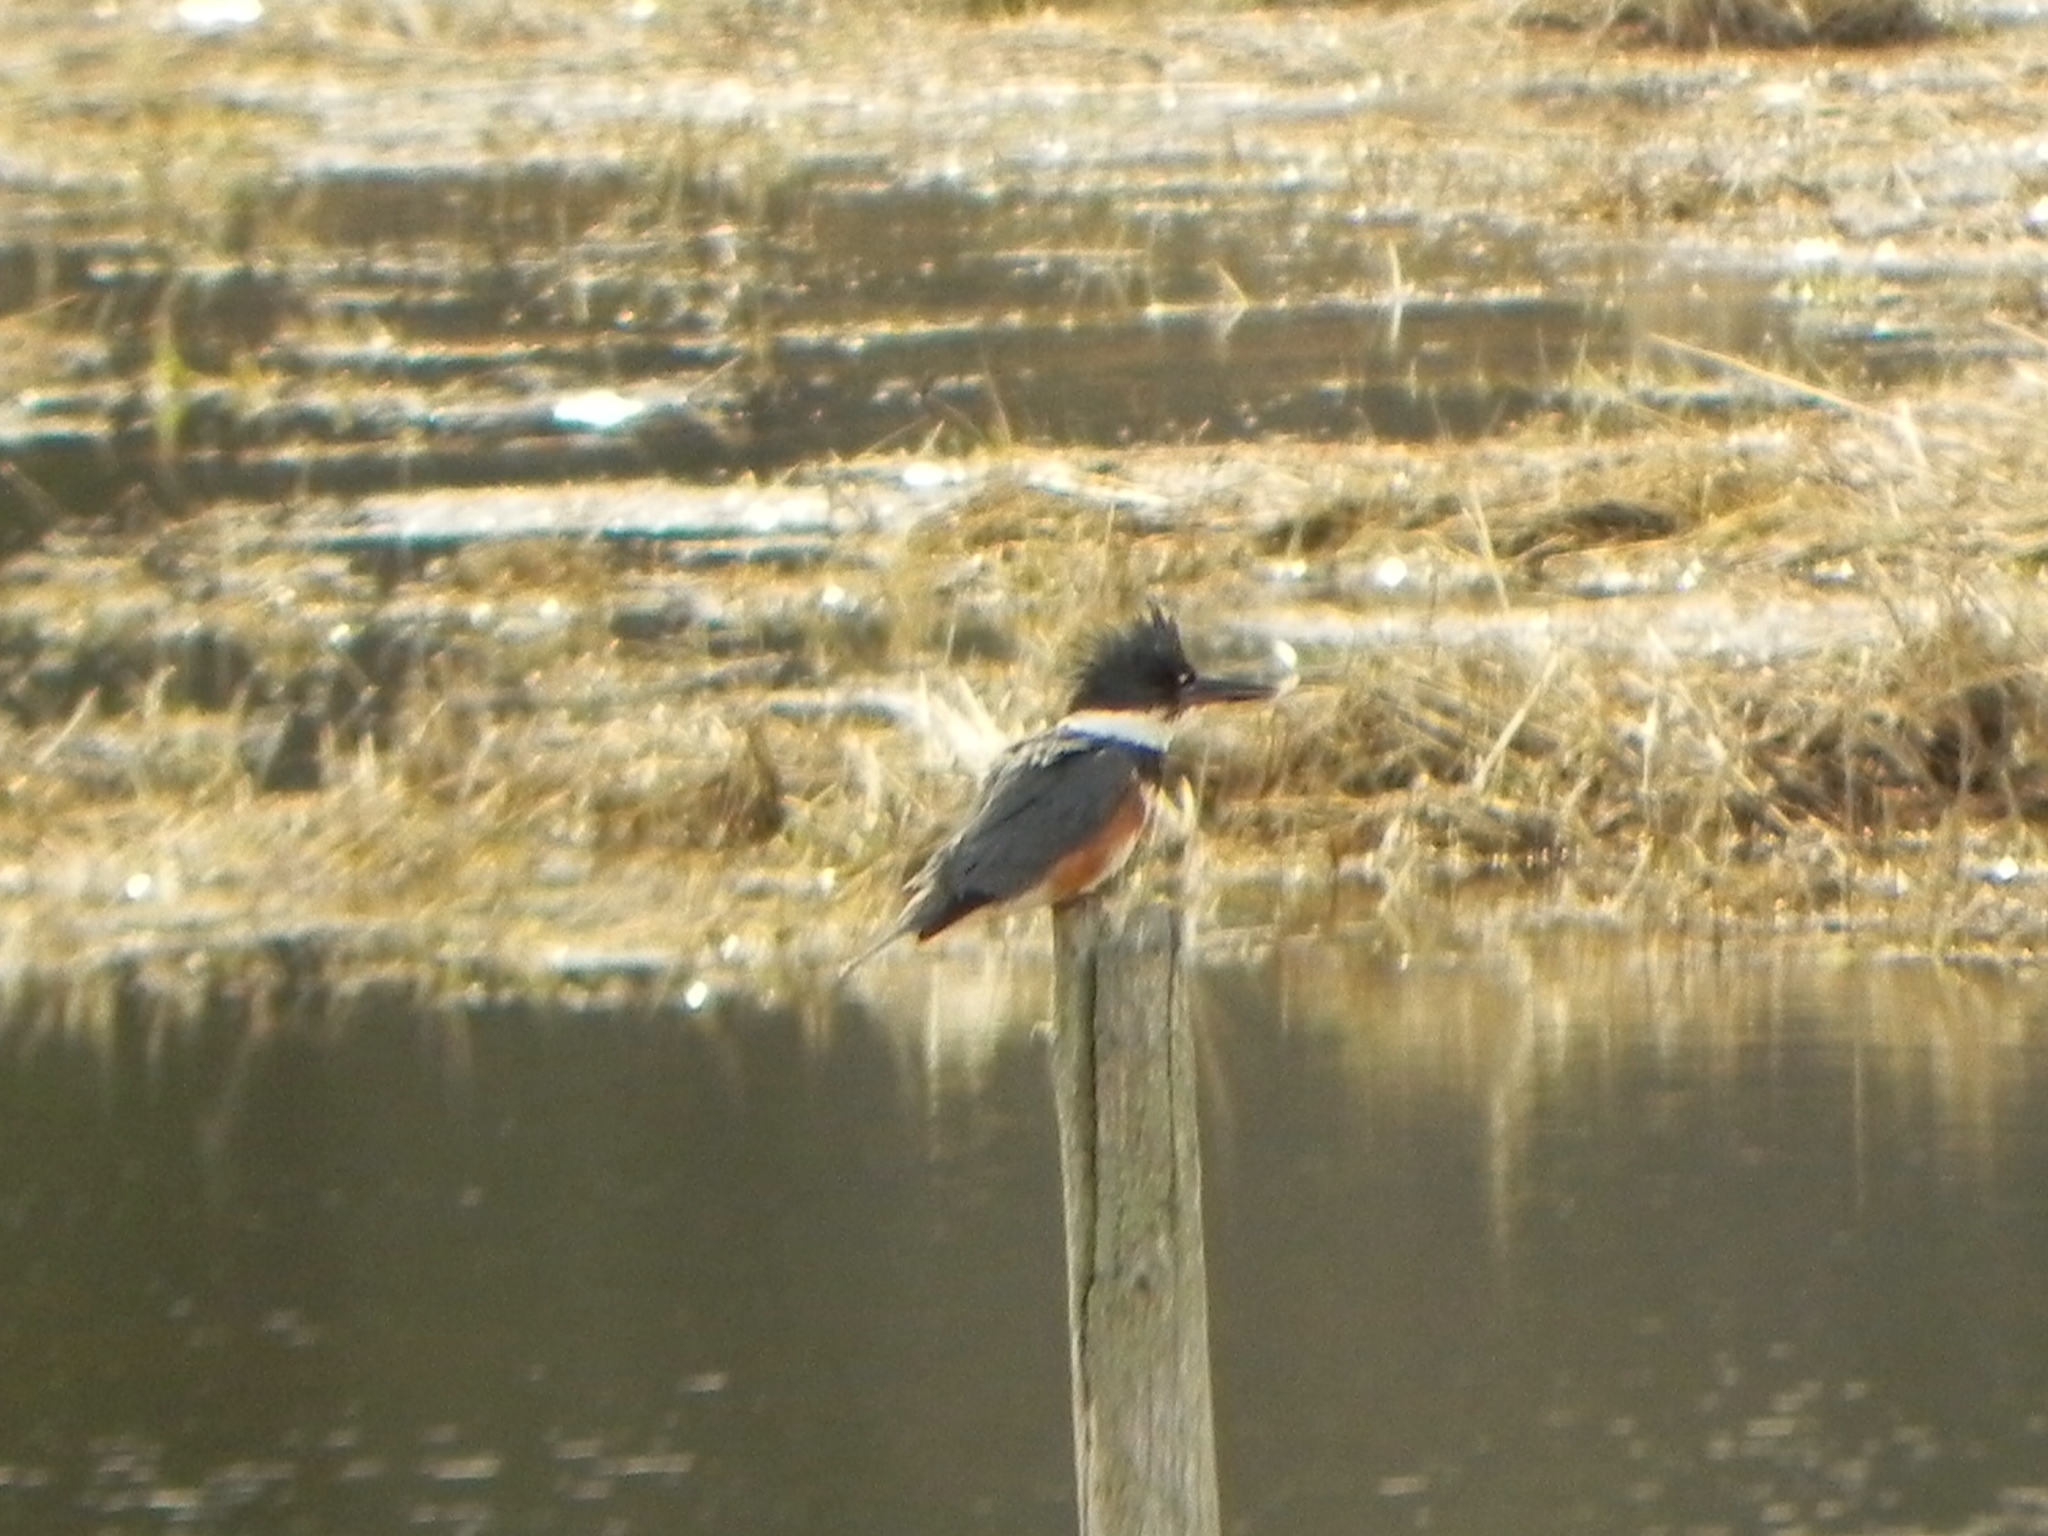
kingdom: Animalia
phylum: Chordata
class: Aves
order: Coraciiformes
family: Alcedinidae
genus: Megaceryle
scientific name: Megaceryle alcyon
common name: Belted kingfisher
